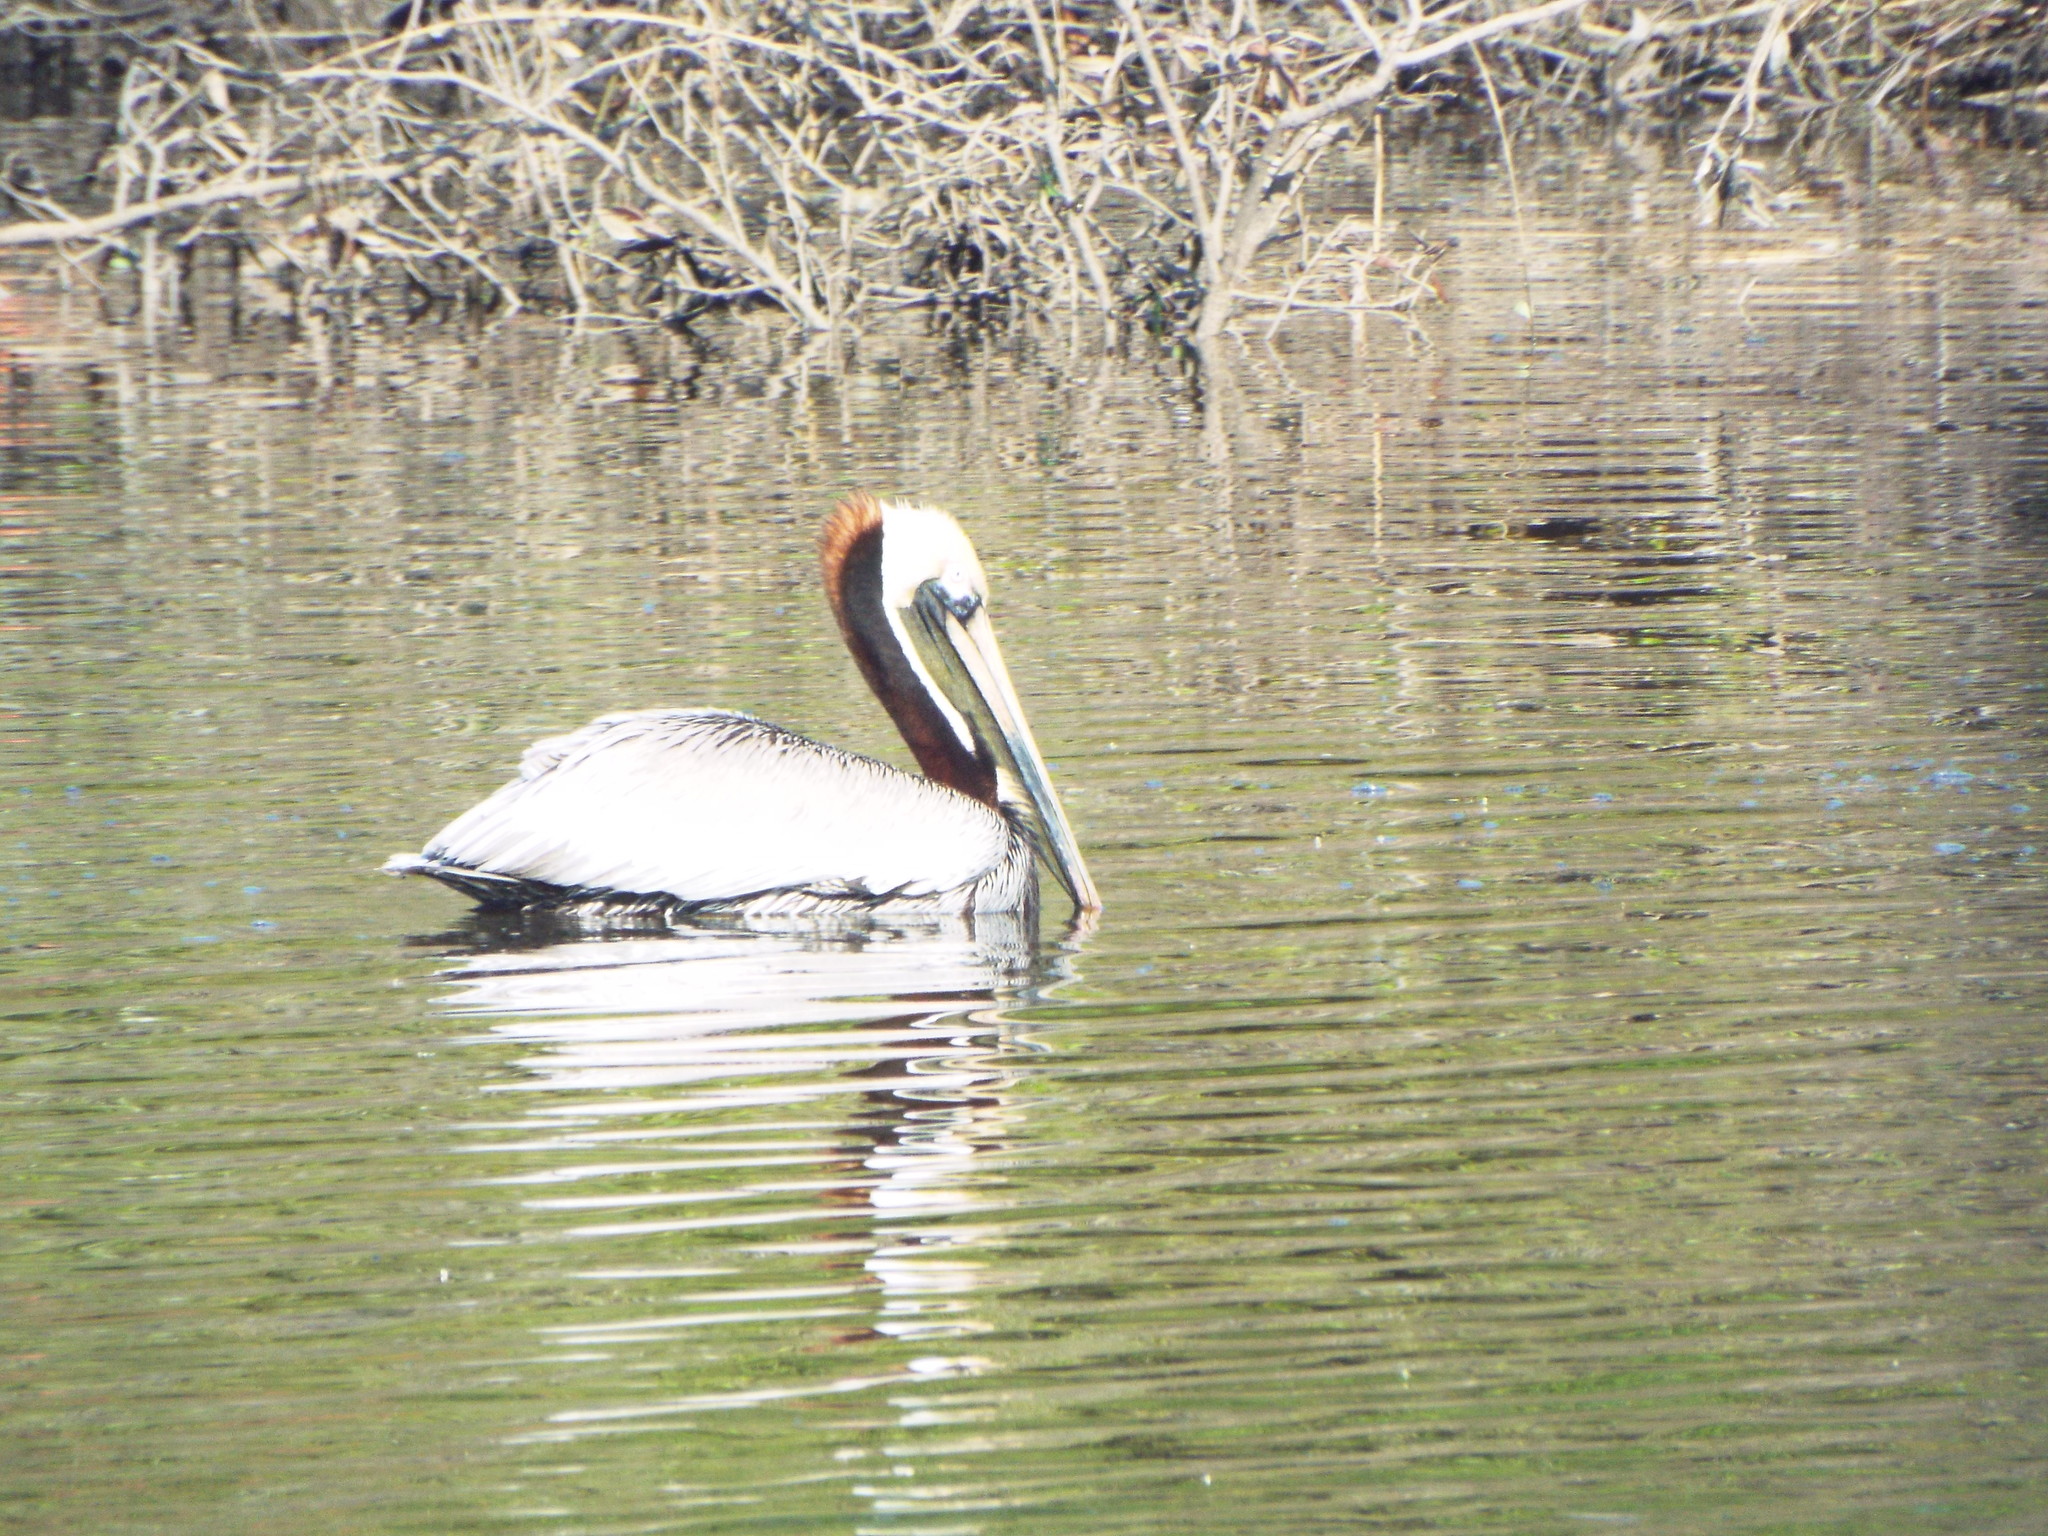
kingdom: Animalia
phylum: Chordata
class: Aves
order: Pelecaniformes
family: Pelecanidae
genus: Pelecanus
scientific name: Pelecanus occidentalis
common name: Brown pelican
